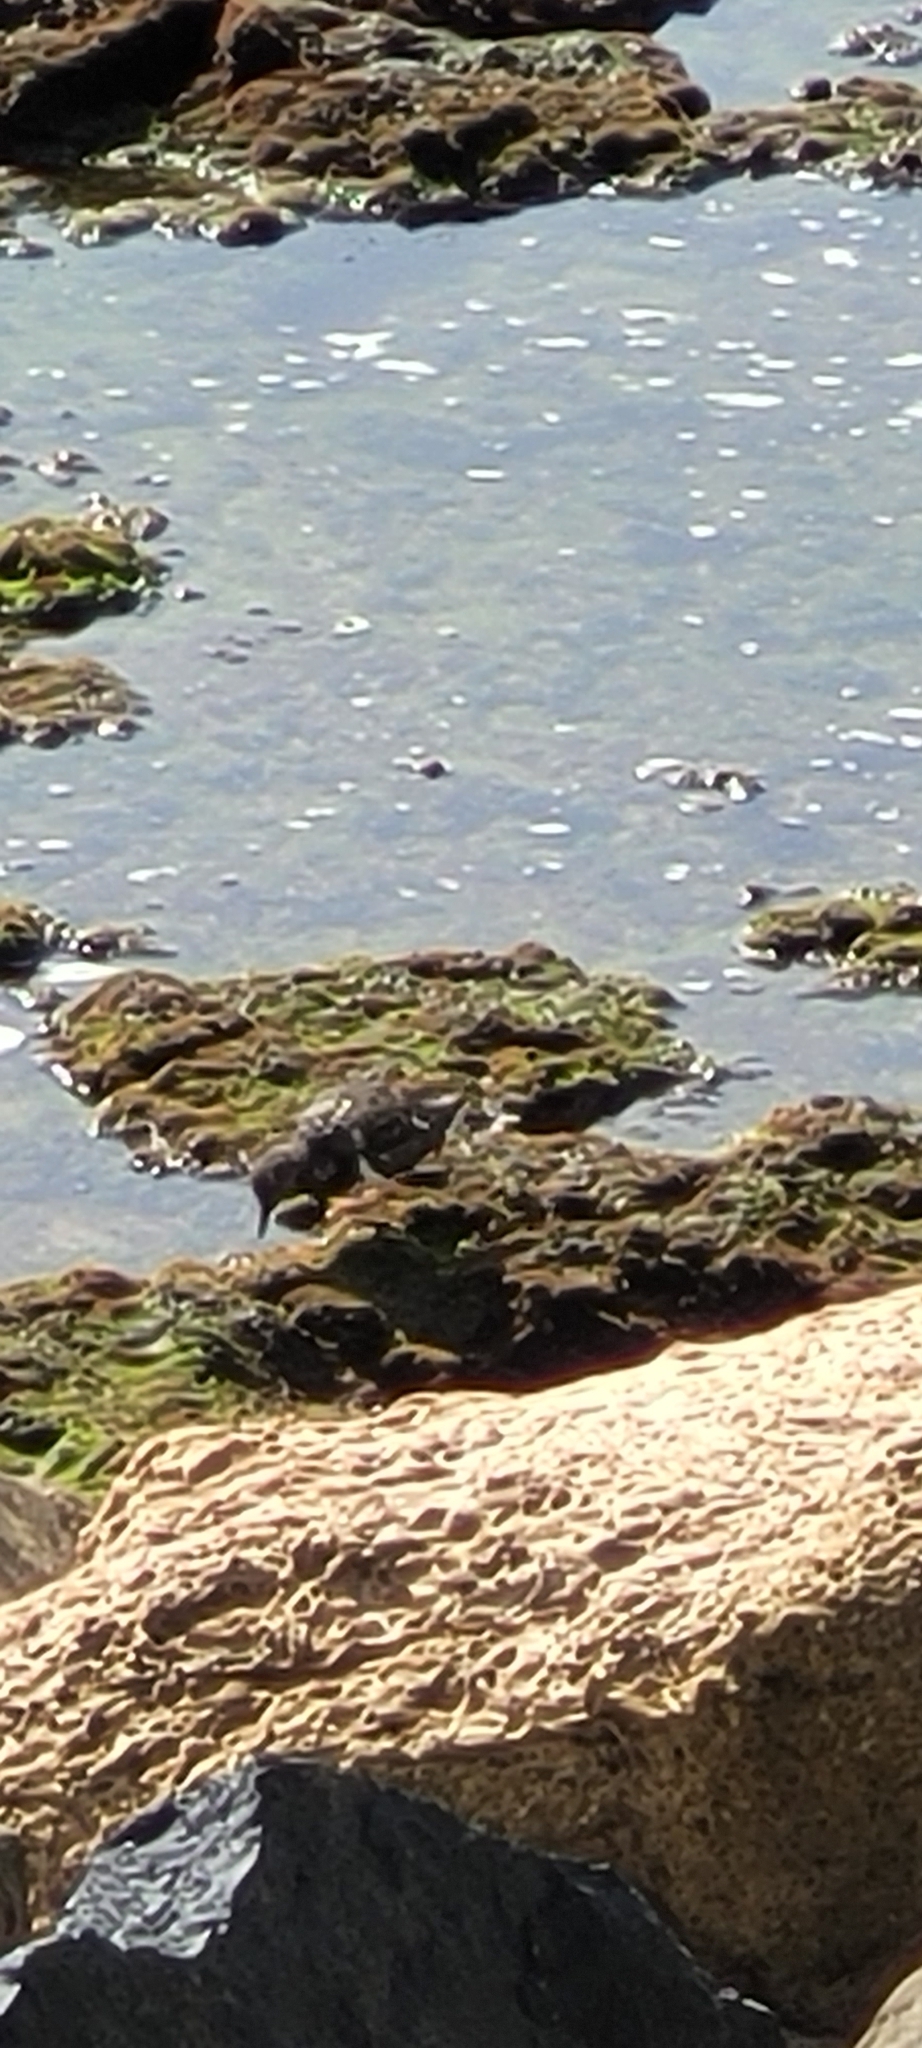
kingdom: Animalia
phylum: Chordata
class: Aves
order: Charadriiformes
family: Scolopacidae
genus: Arenaria
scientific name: Arenaria interpres
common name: Ruddy turnstone
